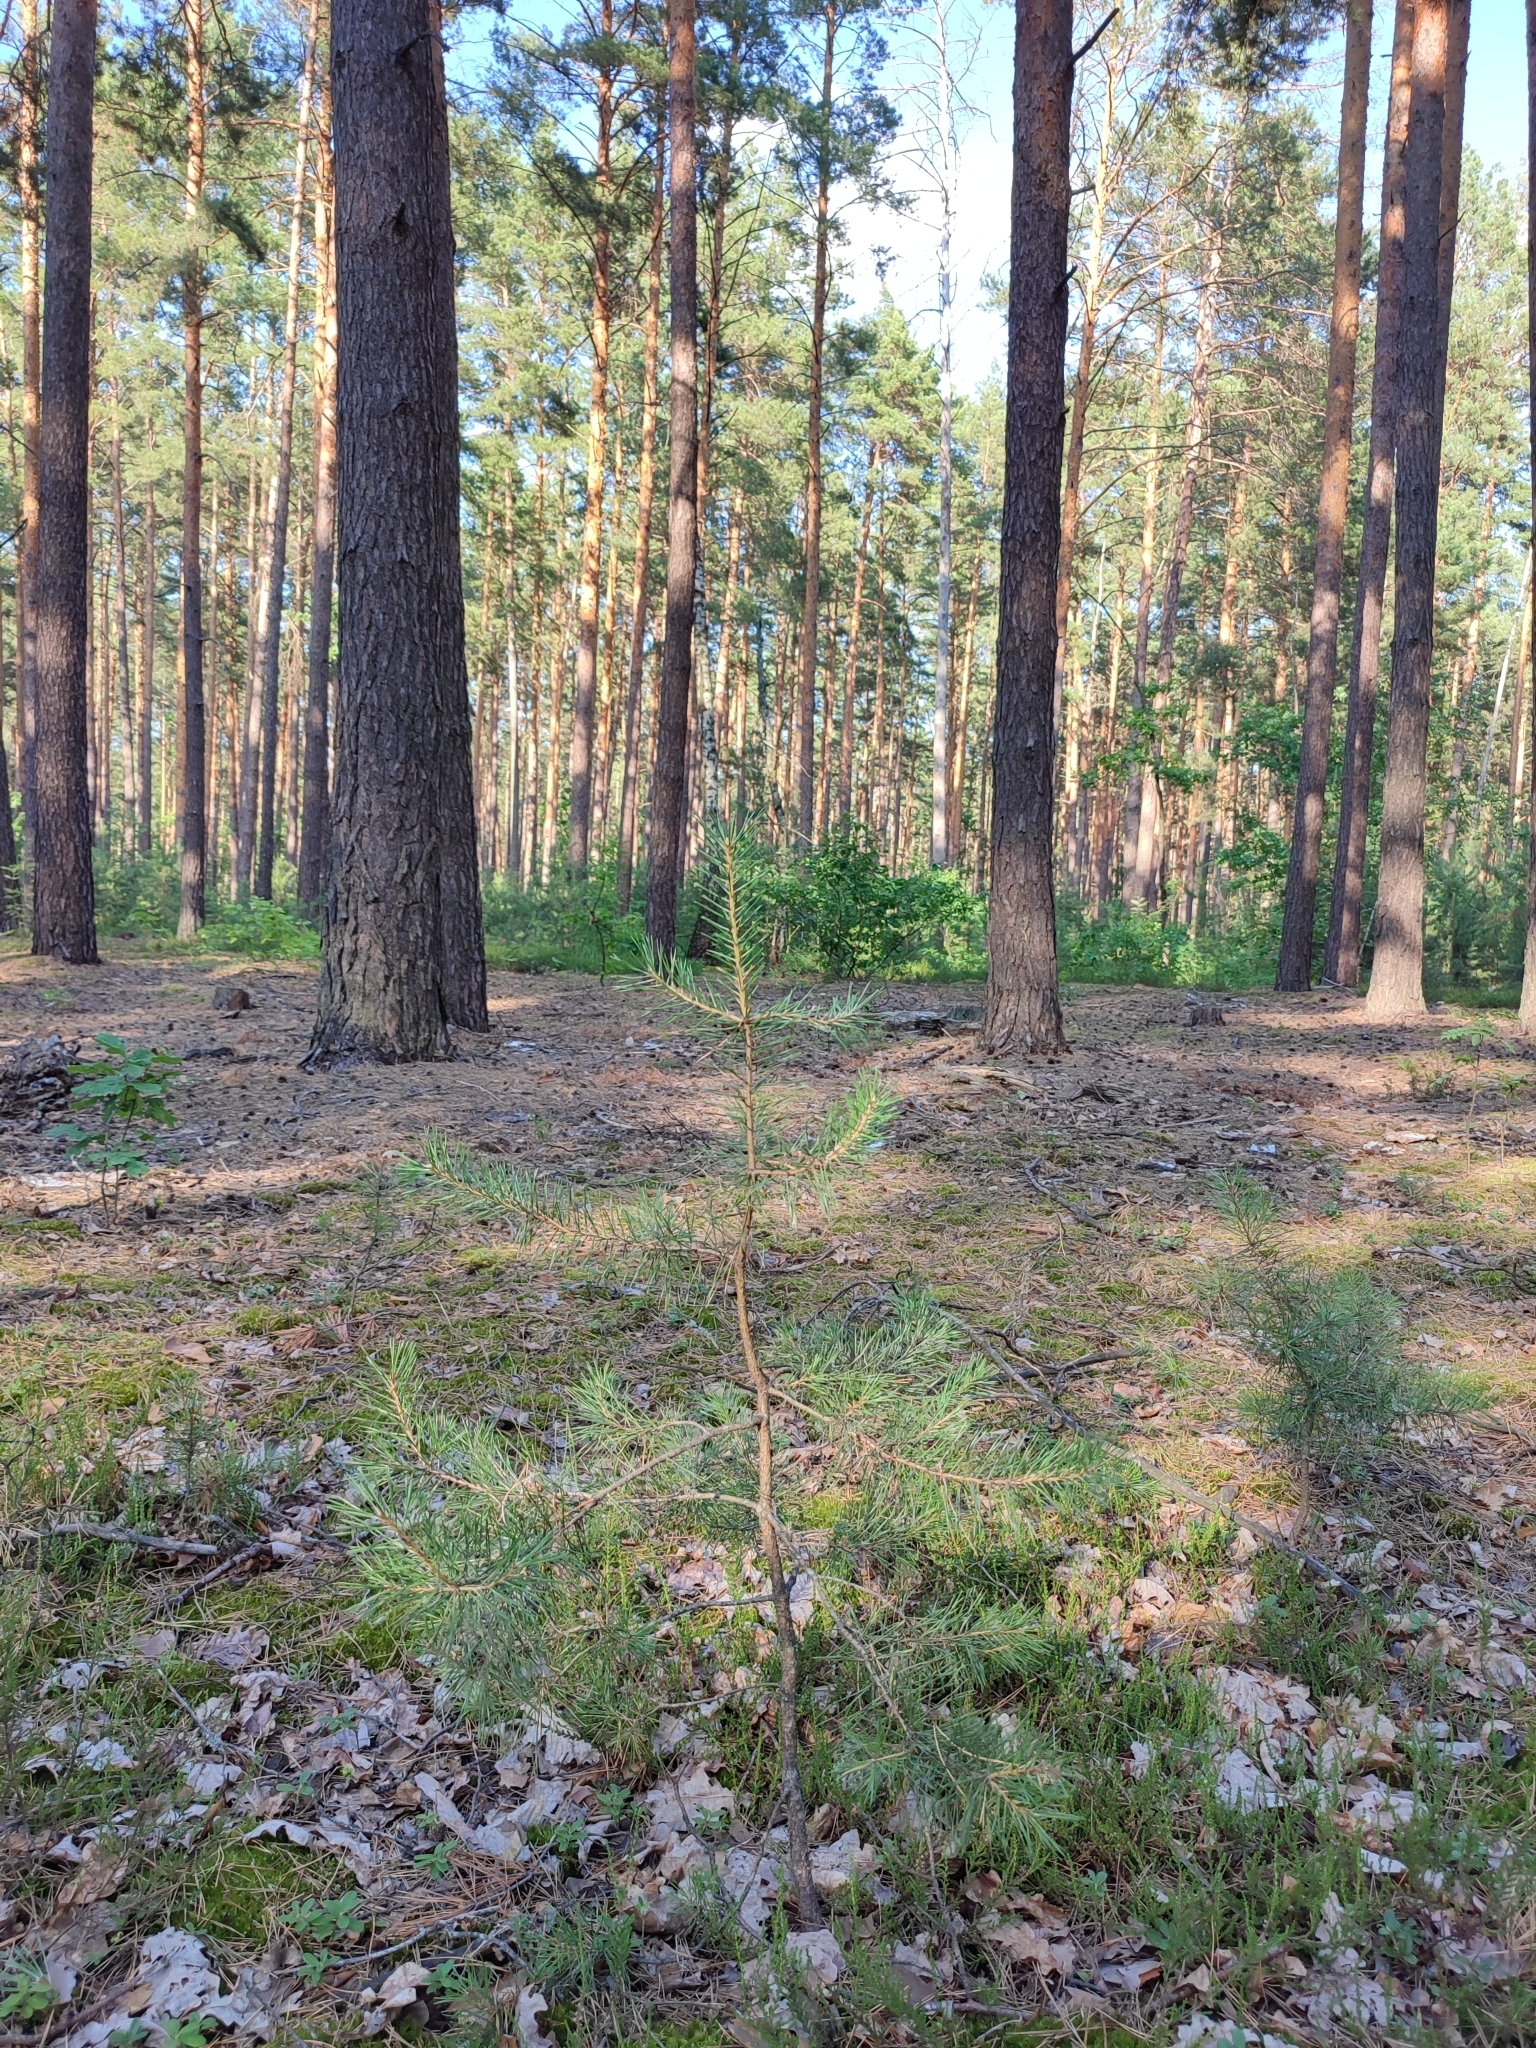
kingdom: Plantae
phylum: Tracheophyta
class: Pinopsida
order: Pinales
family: Pinaceae
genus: Pinus
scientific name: Pinus sylvestris
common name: Scots pine
